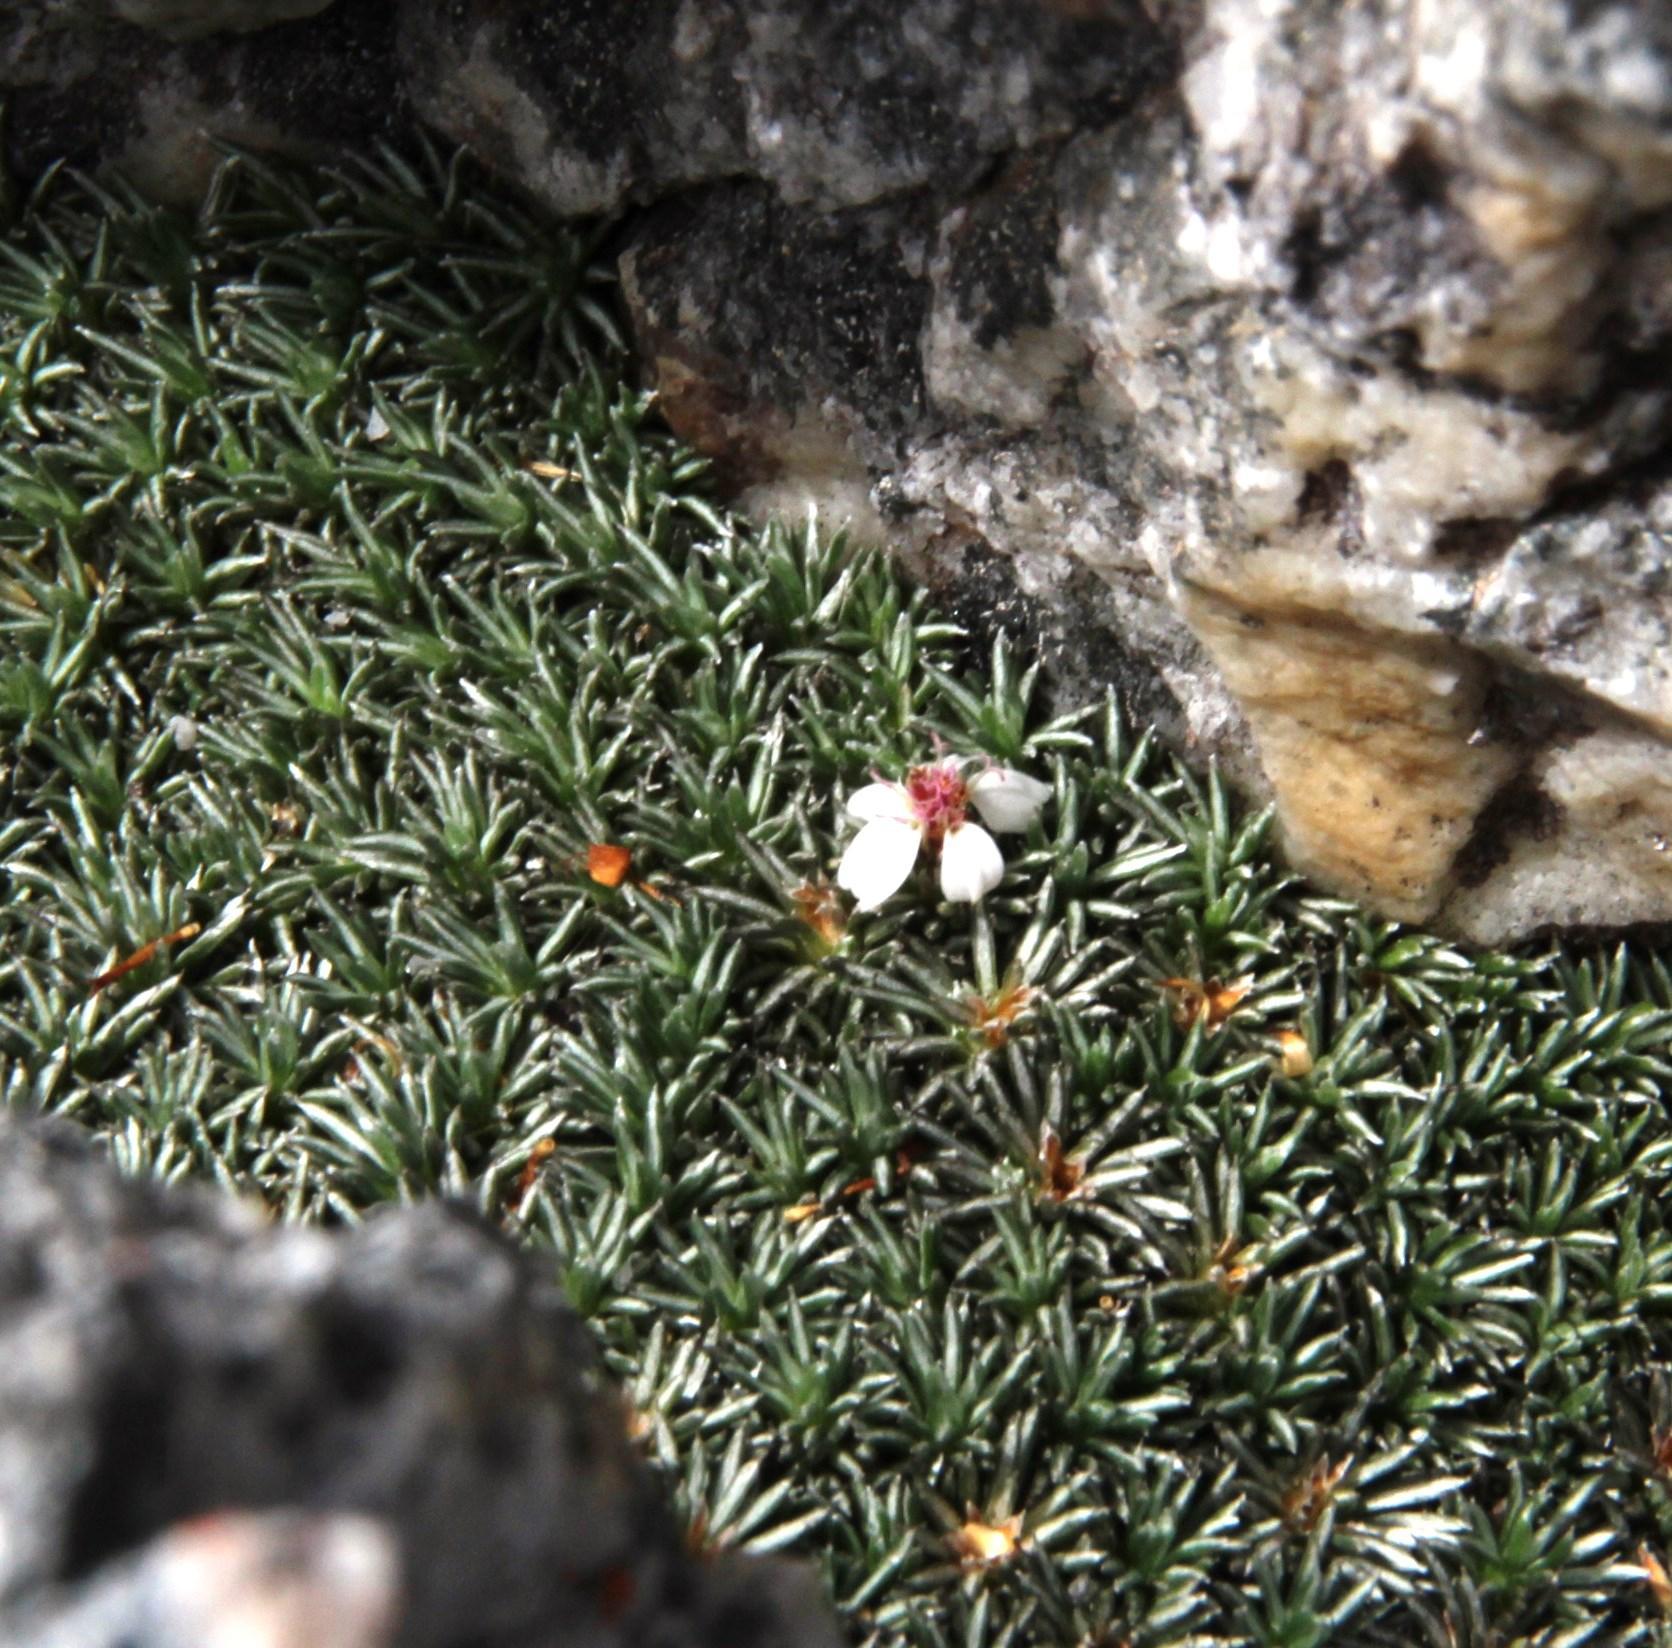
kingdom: Plantae
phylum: Tracheophyta
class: Magnoliopsida
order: Asterales
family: Asteraceae
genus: Muscosomorphe
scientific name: Muscosomorphe aretioides
